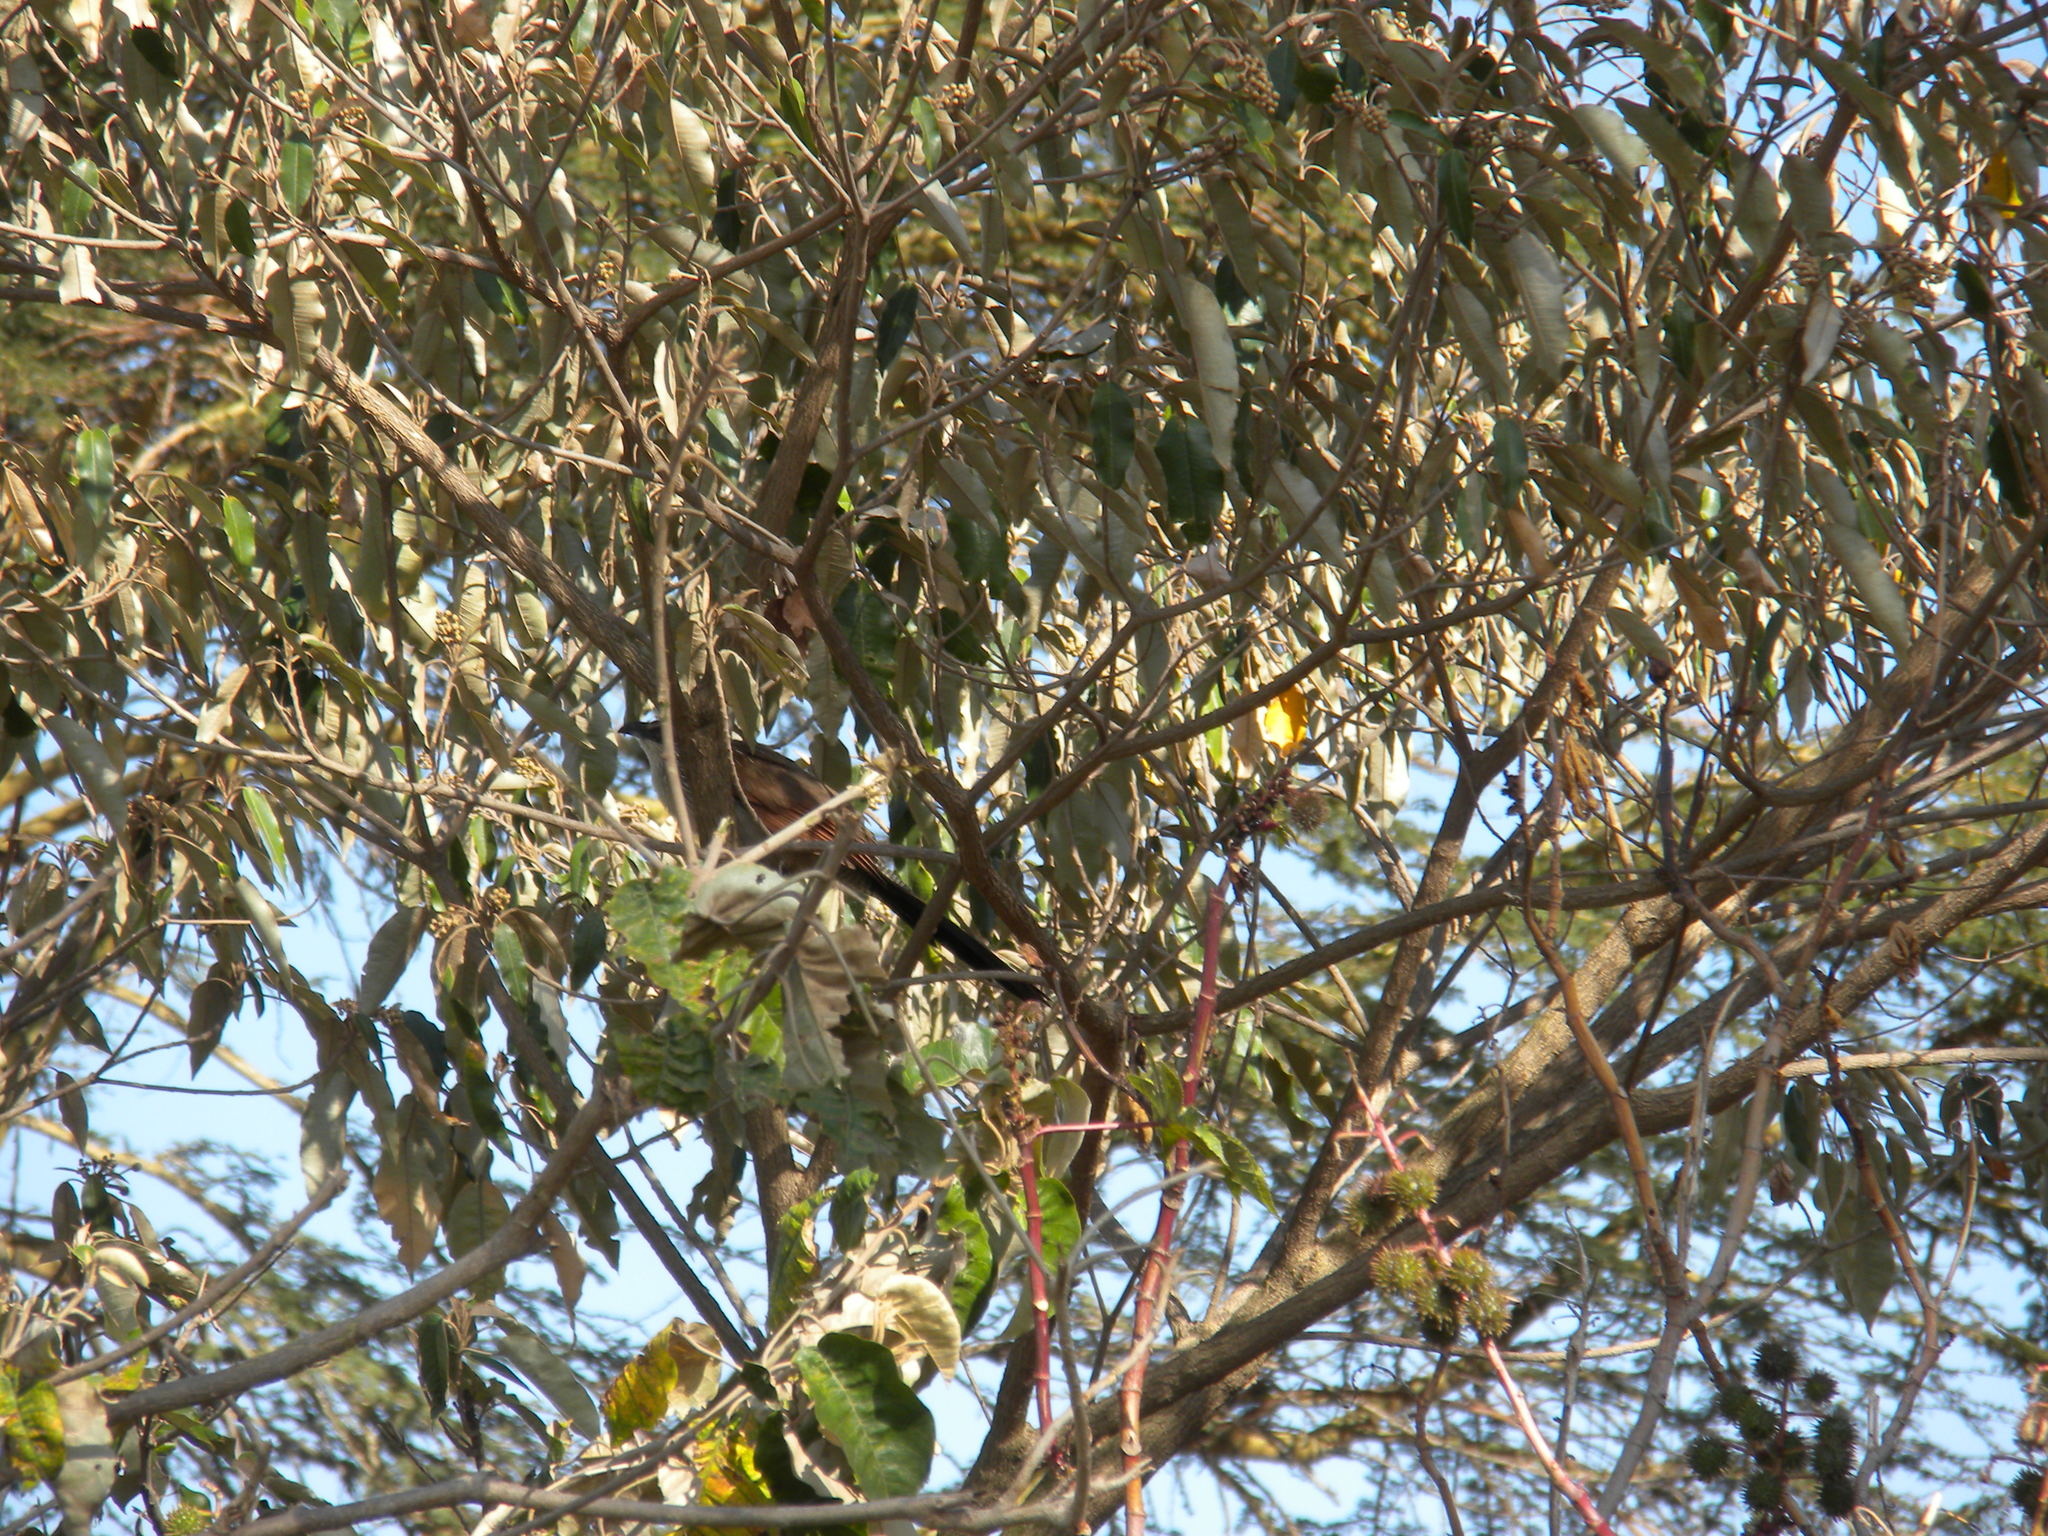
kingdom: Animalia
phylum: Chordata
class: Aves
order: Cuculiformes
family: Cuculidae
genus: Centropus
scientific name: Centropus superciliosus
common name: White-browed coucal
